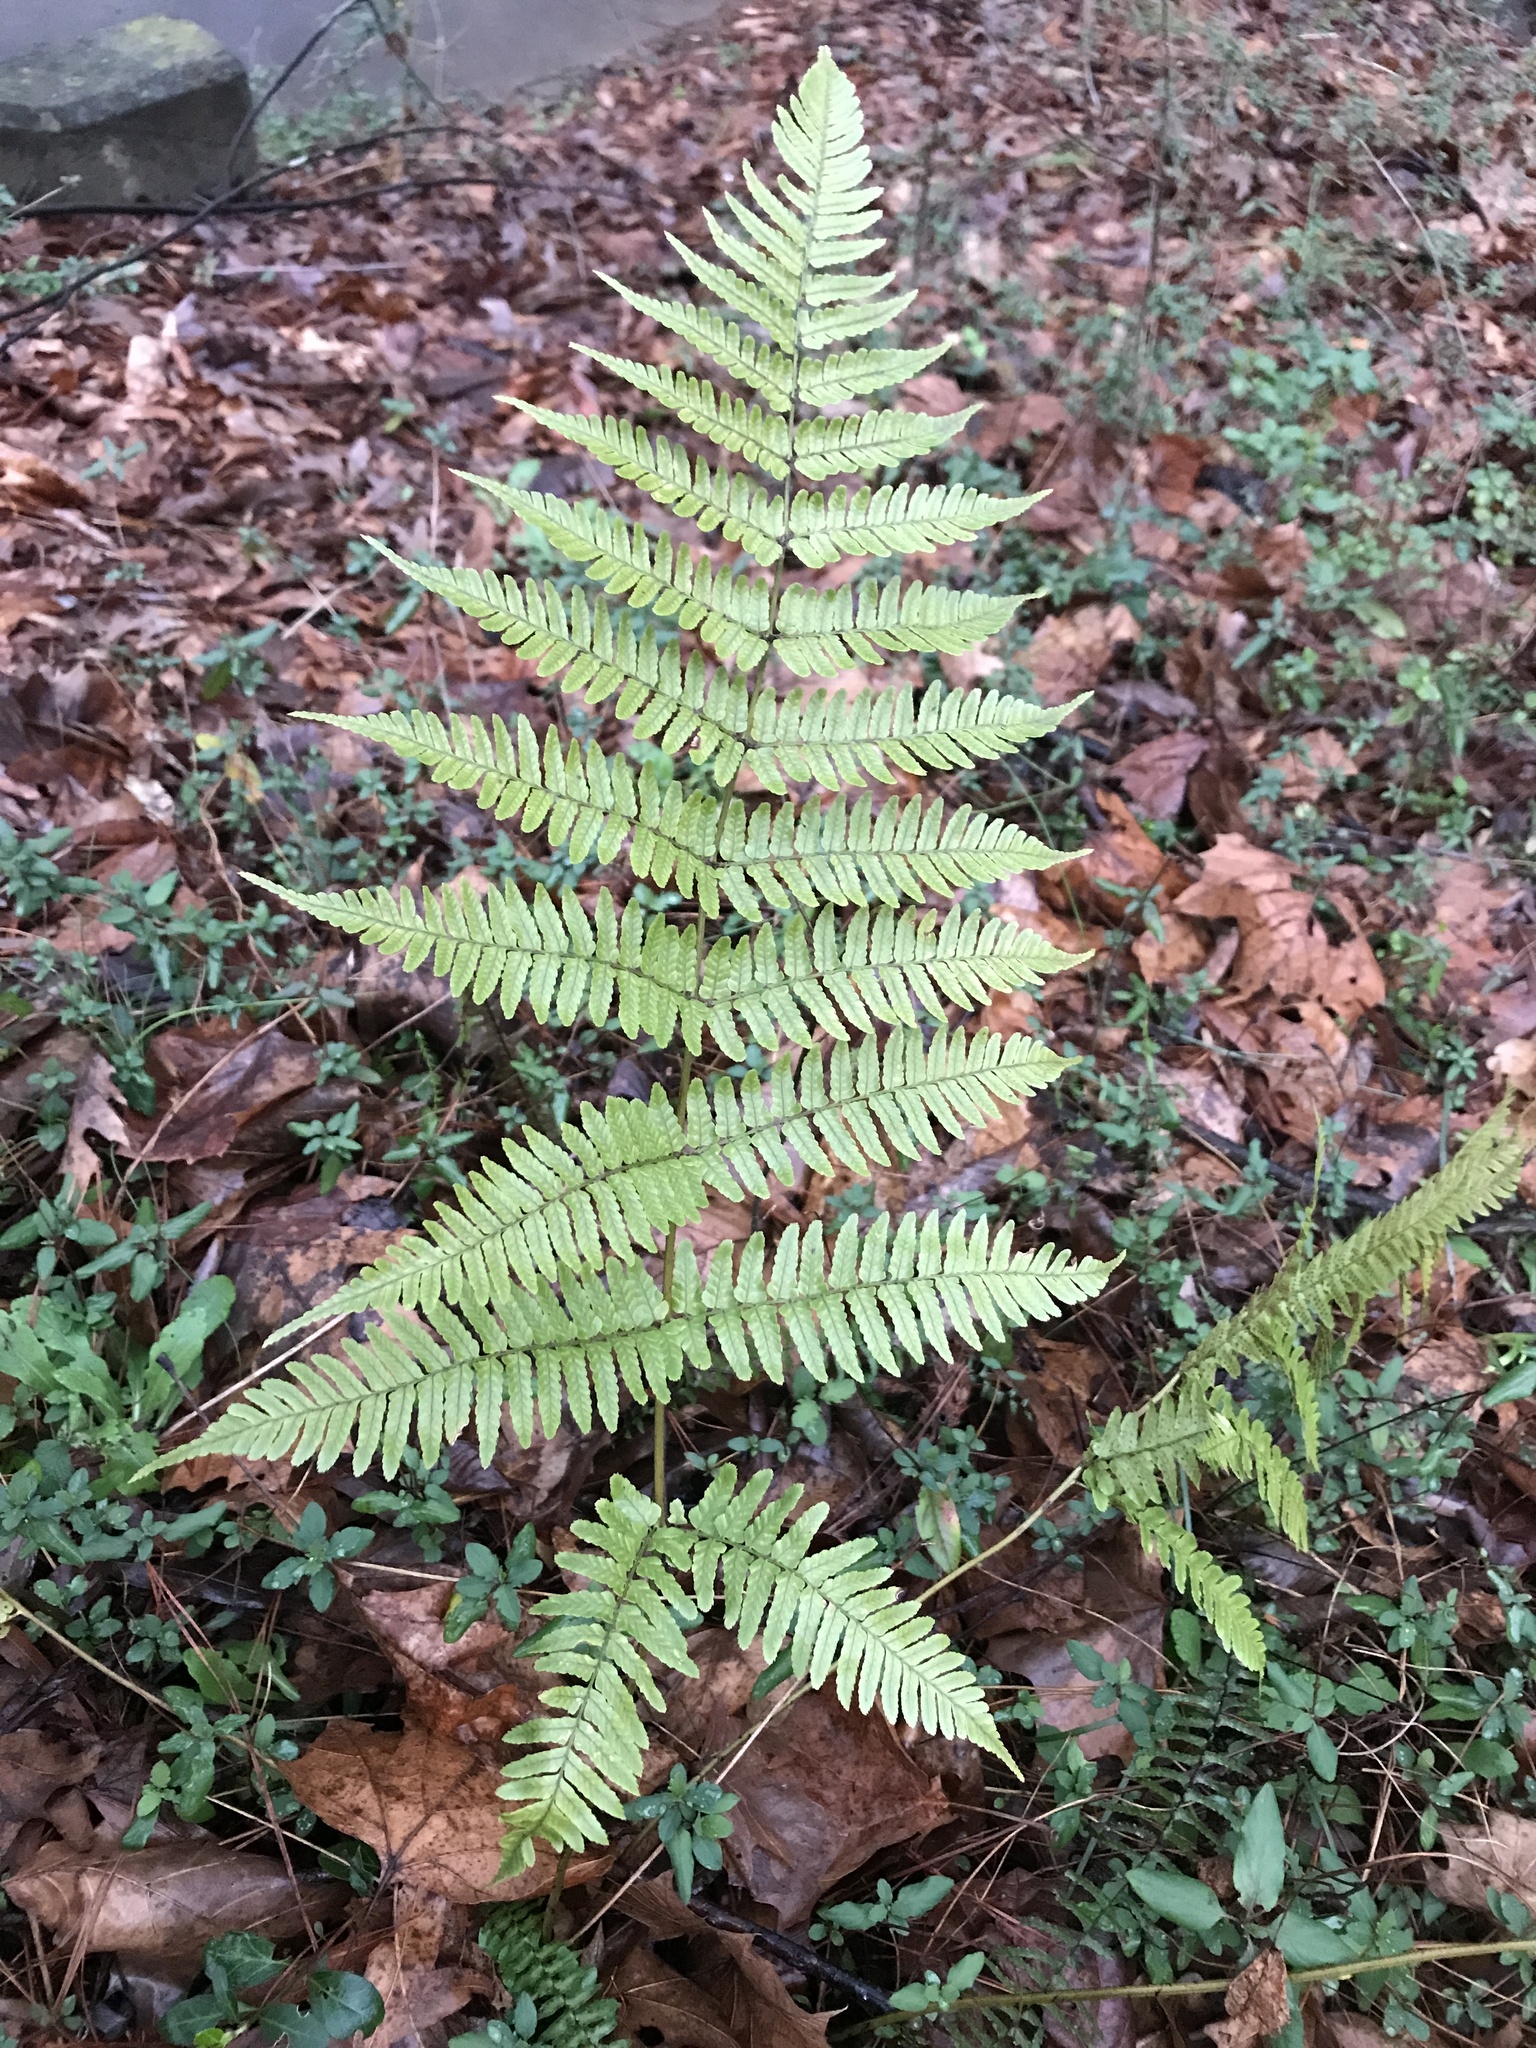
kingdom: Plantae
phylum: Tracheophyta
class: Polypodiopsida
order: Polypodiales
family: Dryopteridaceae
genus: Dryopteris
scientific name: Dryopteris erythrosora
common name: Autumn fern
